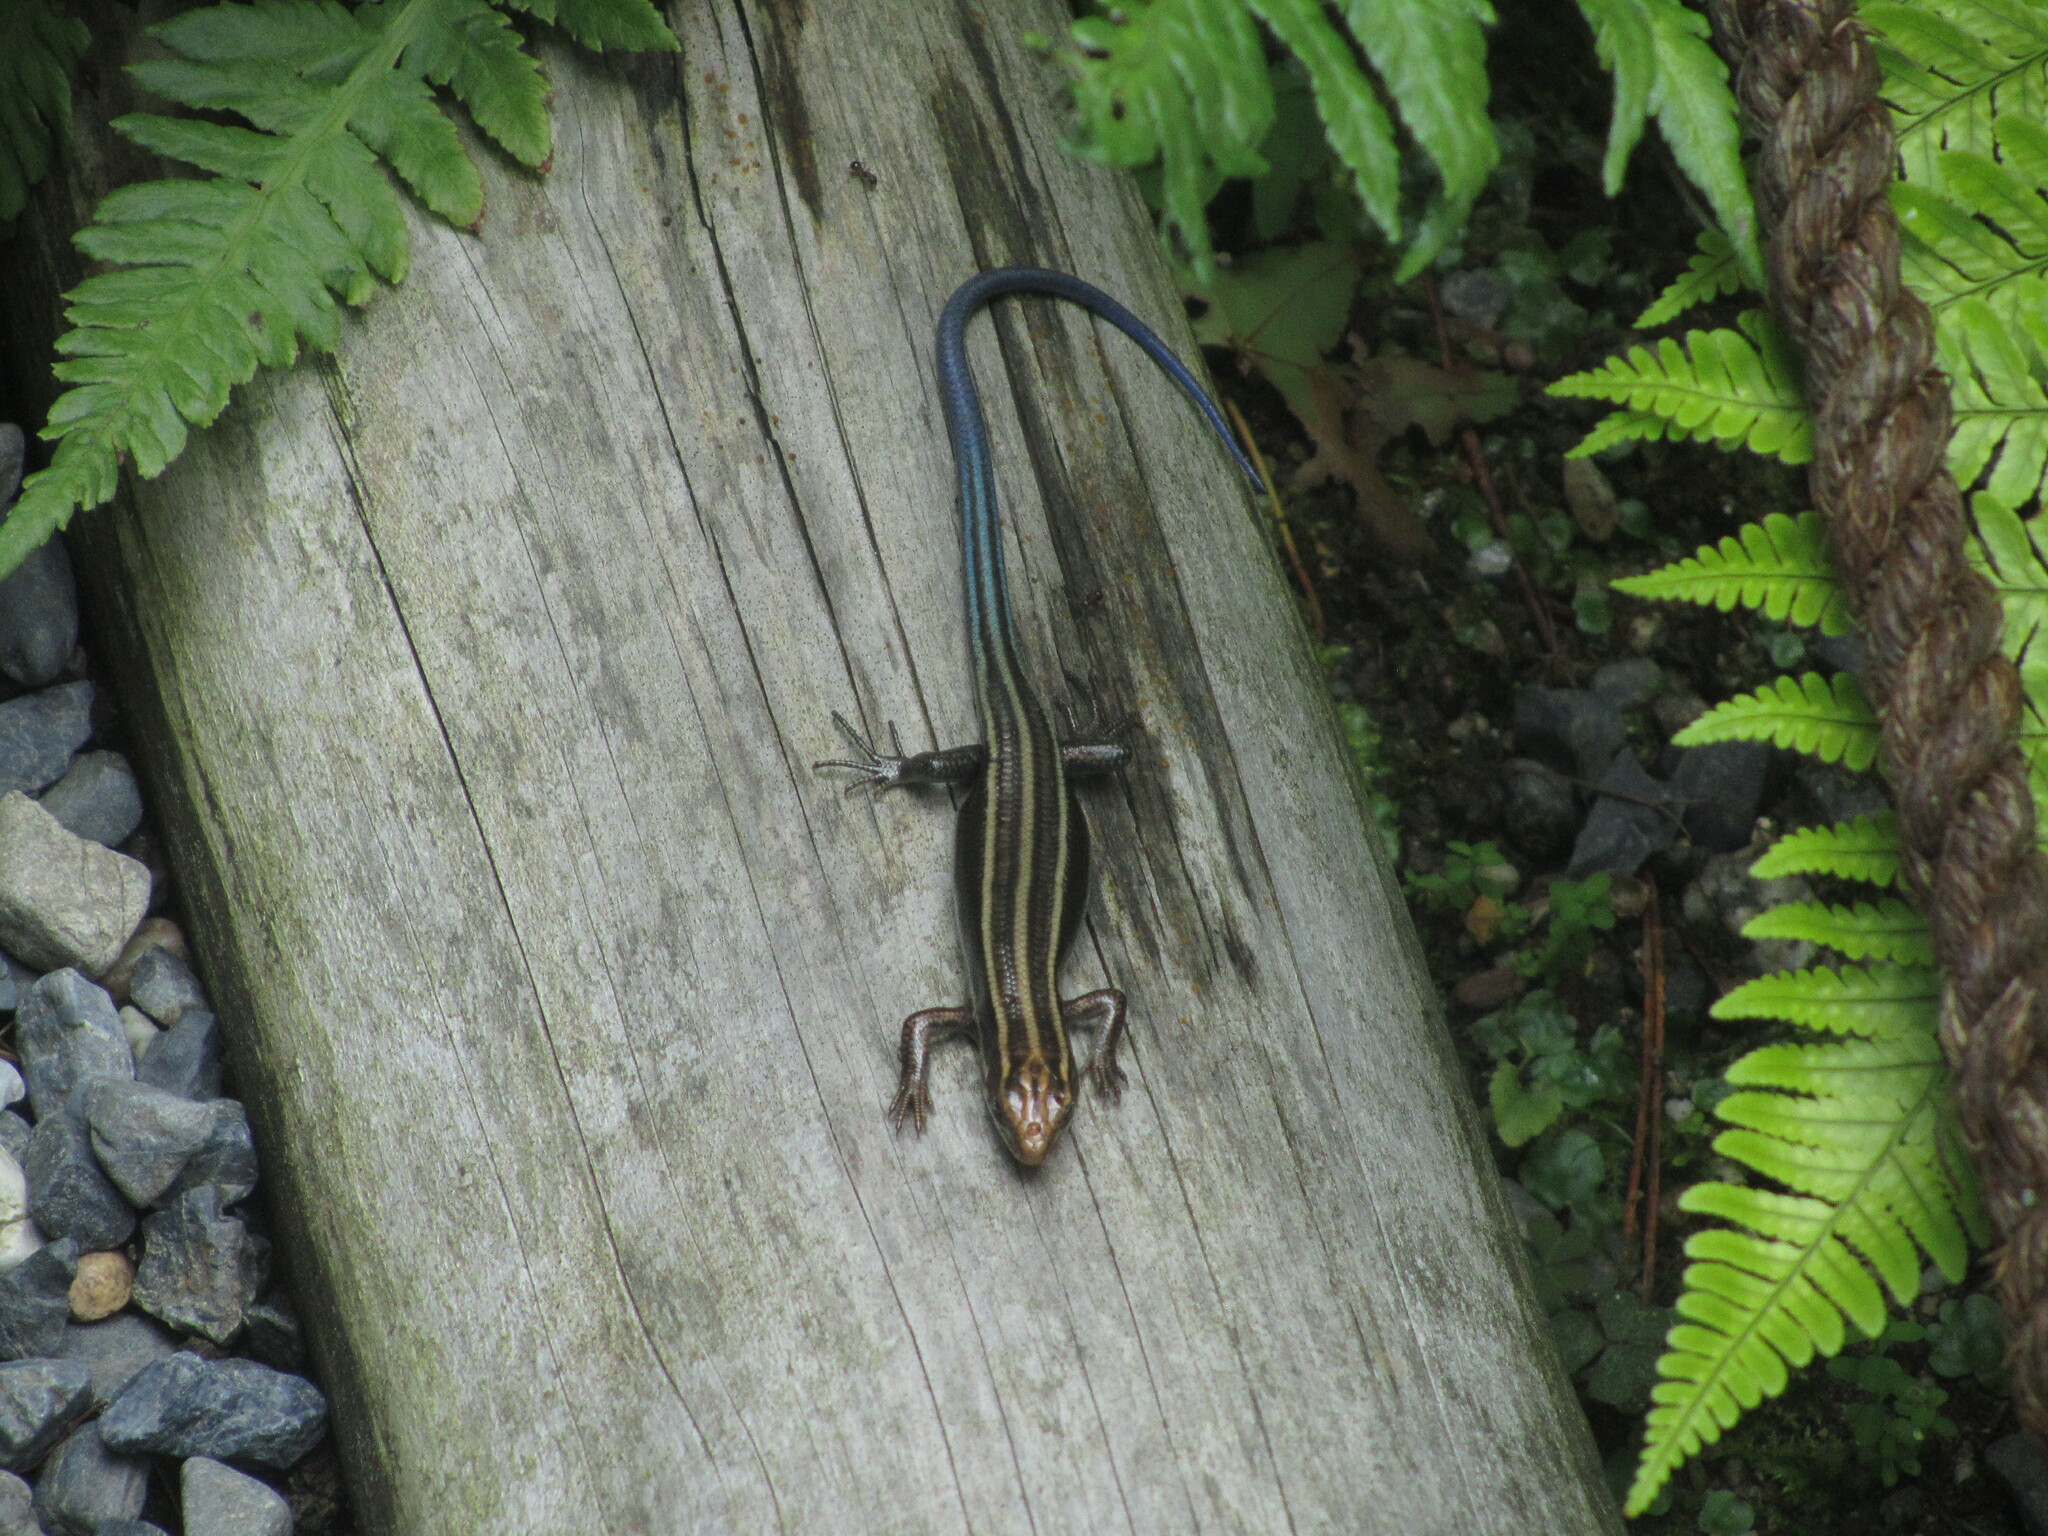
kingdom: Animalia
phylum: Chordata
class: Squamata
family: Scincidae
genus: Plestiodon
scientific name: Plestiodon japonicus
